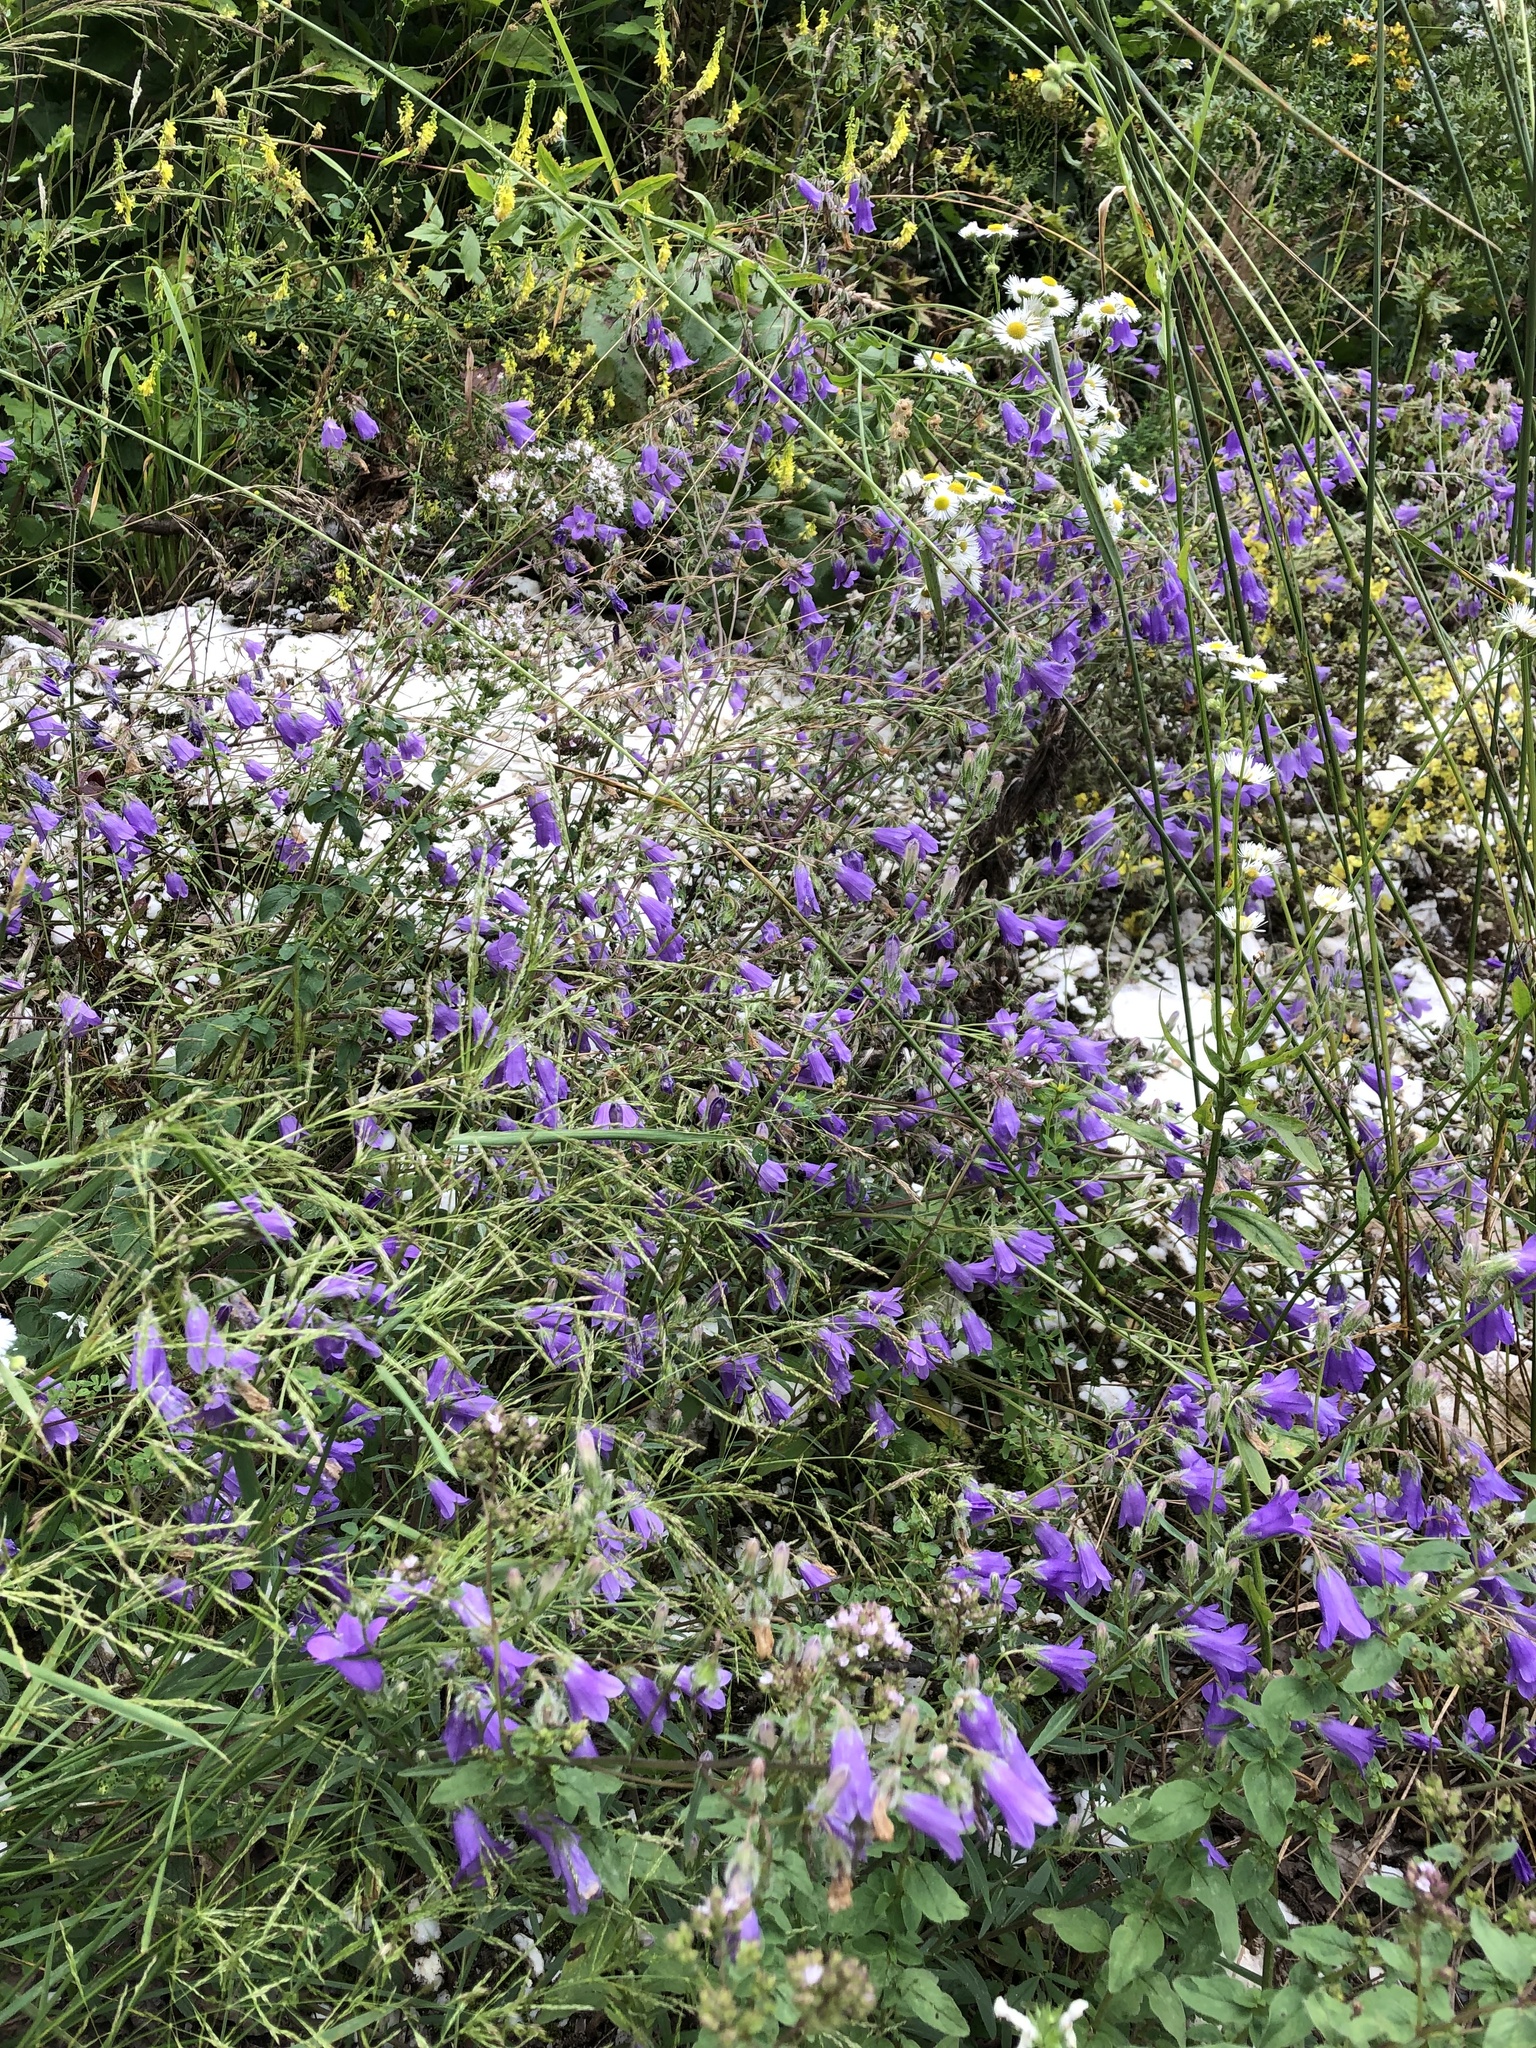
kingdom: Plantae
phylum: Tracheophyta
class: Magnoliopsida
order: Asterales
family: Campanulaceae
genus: Campanula
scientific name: Campanula litvinskajae
